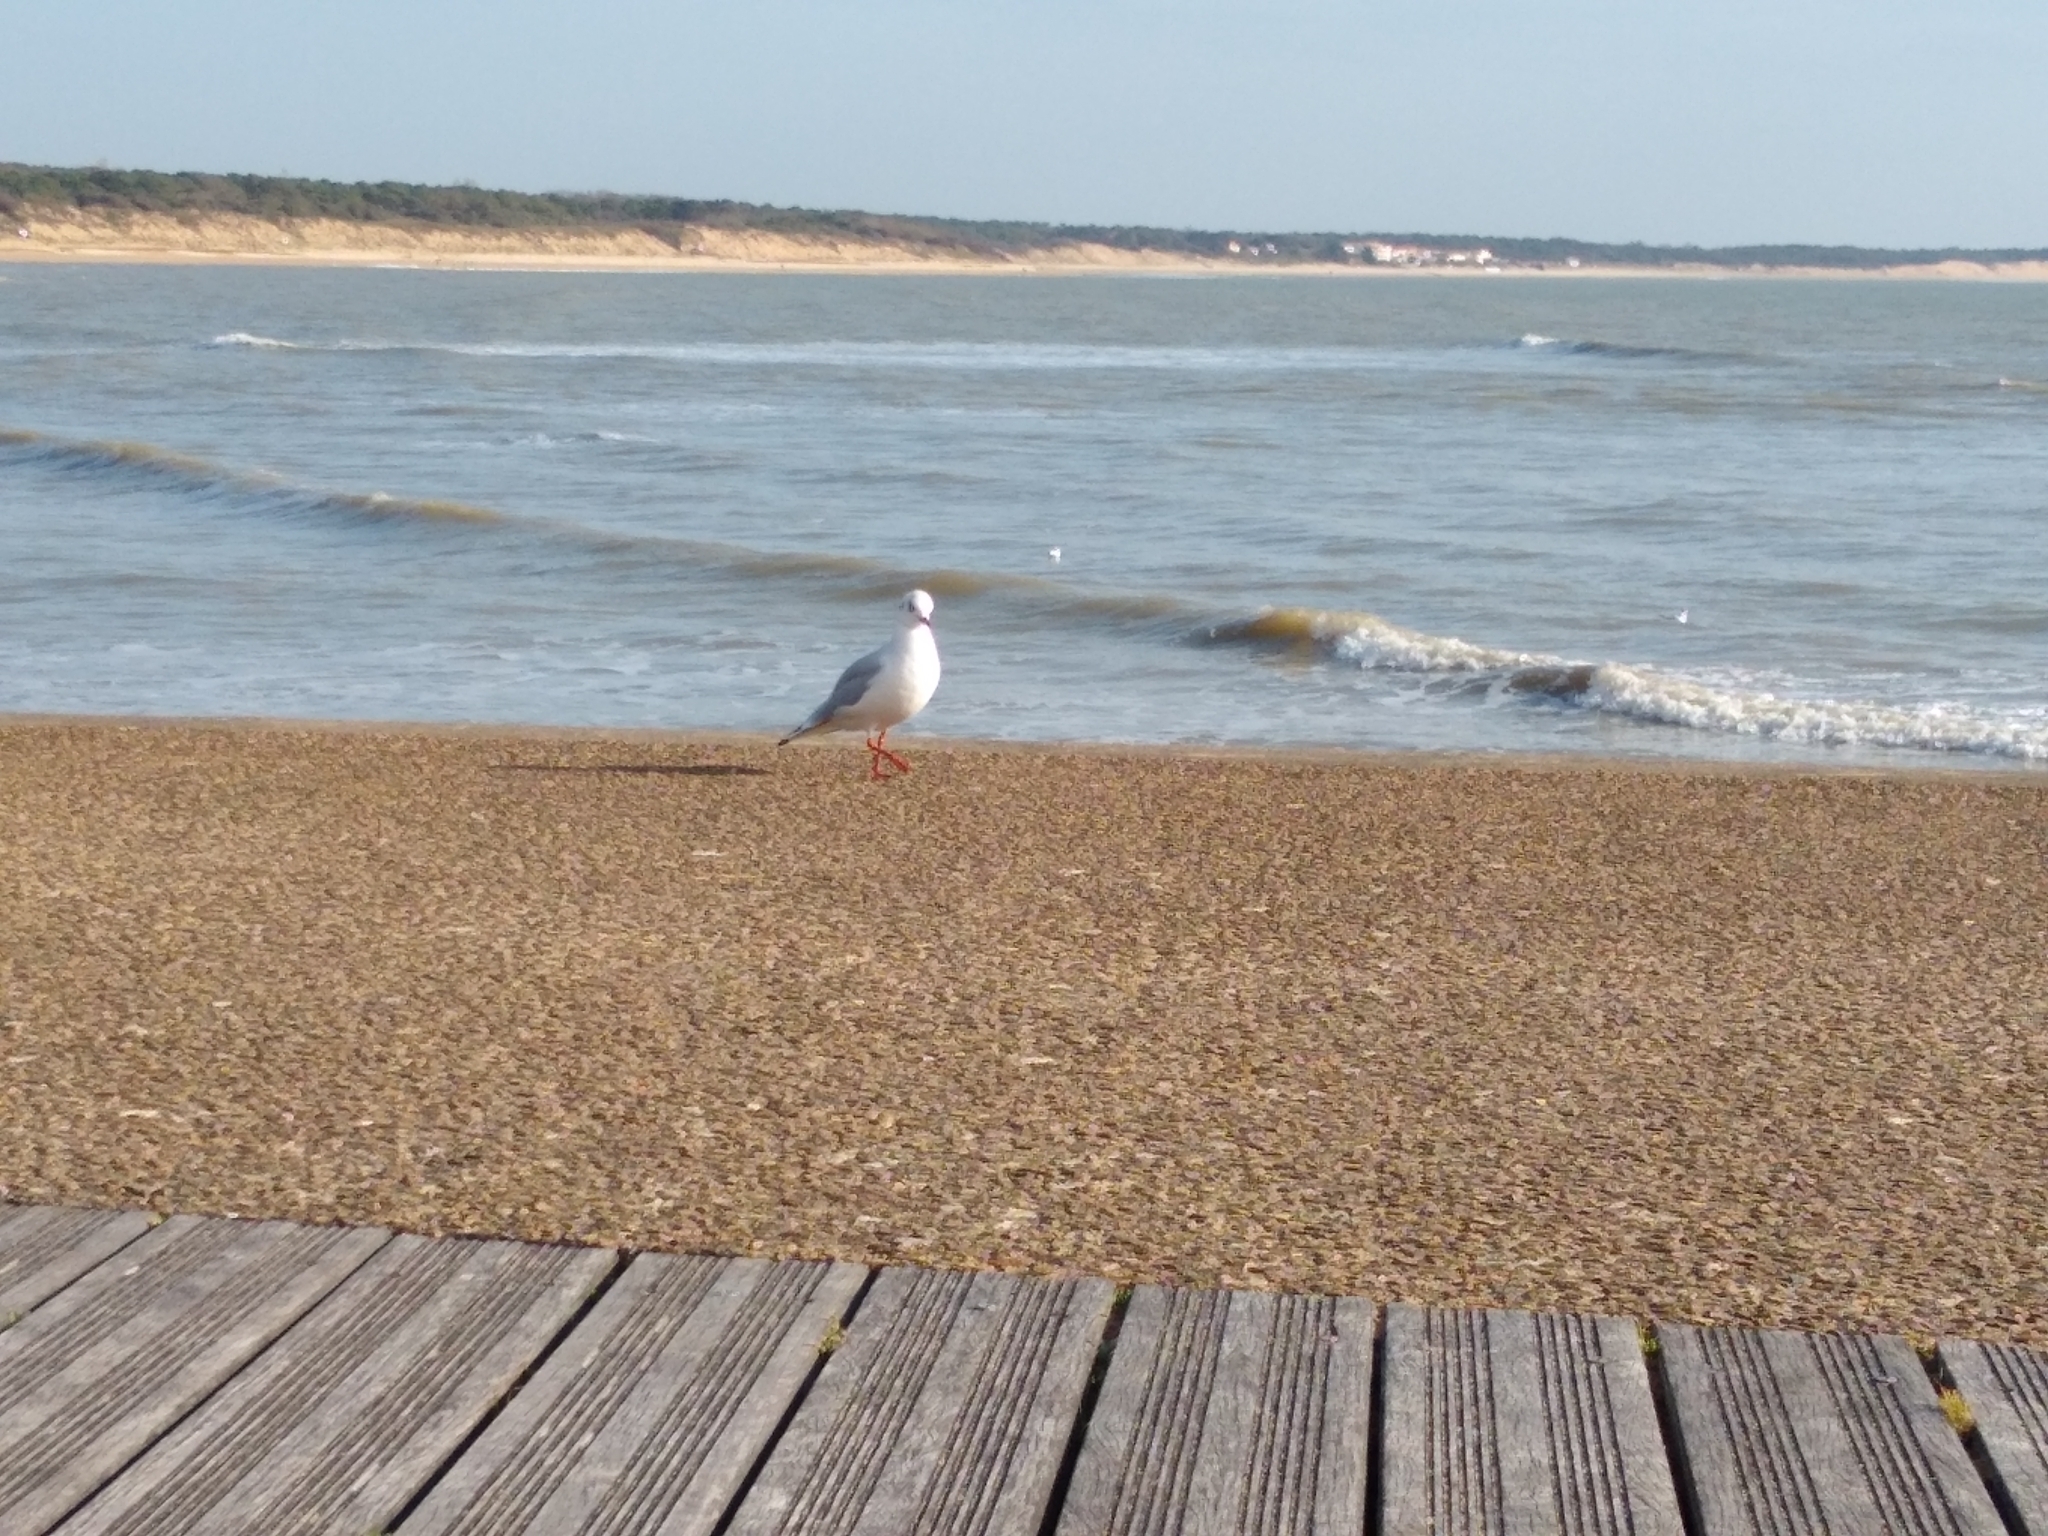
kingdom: Animalia
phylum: Chordata
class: Aves
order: Charadriiformes
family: Laridae
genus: Chroicocephalus
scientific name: Chroicocephalus ridibundus
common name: Black-headed gull
